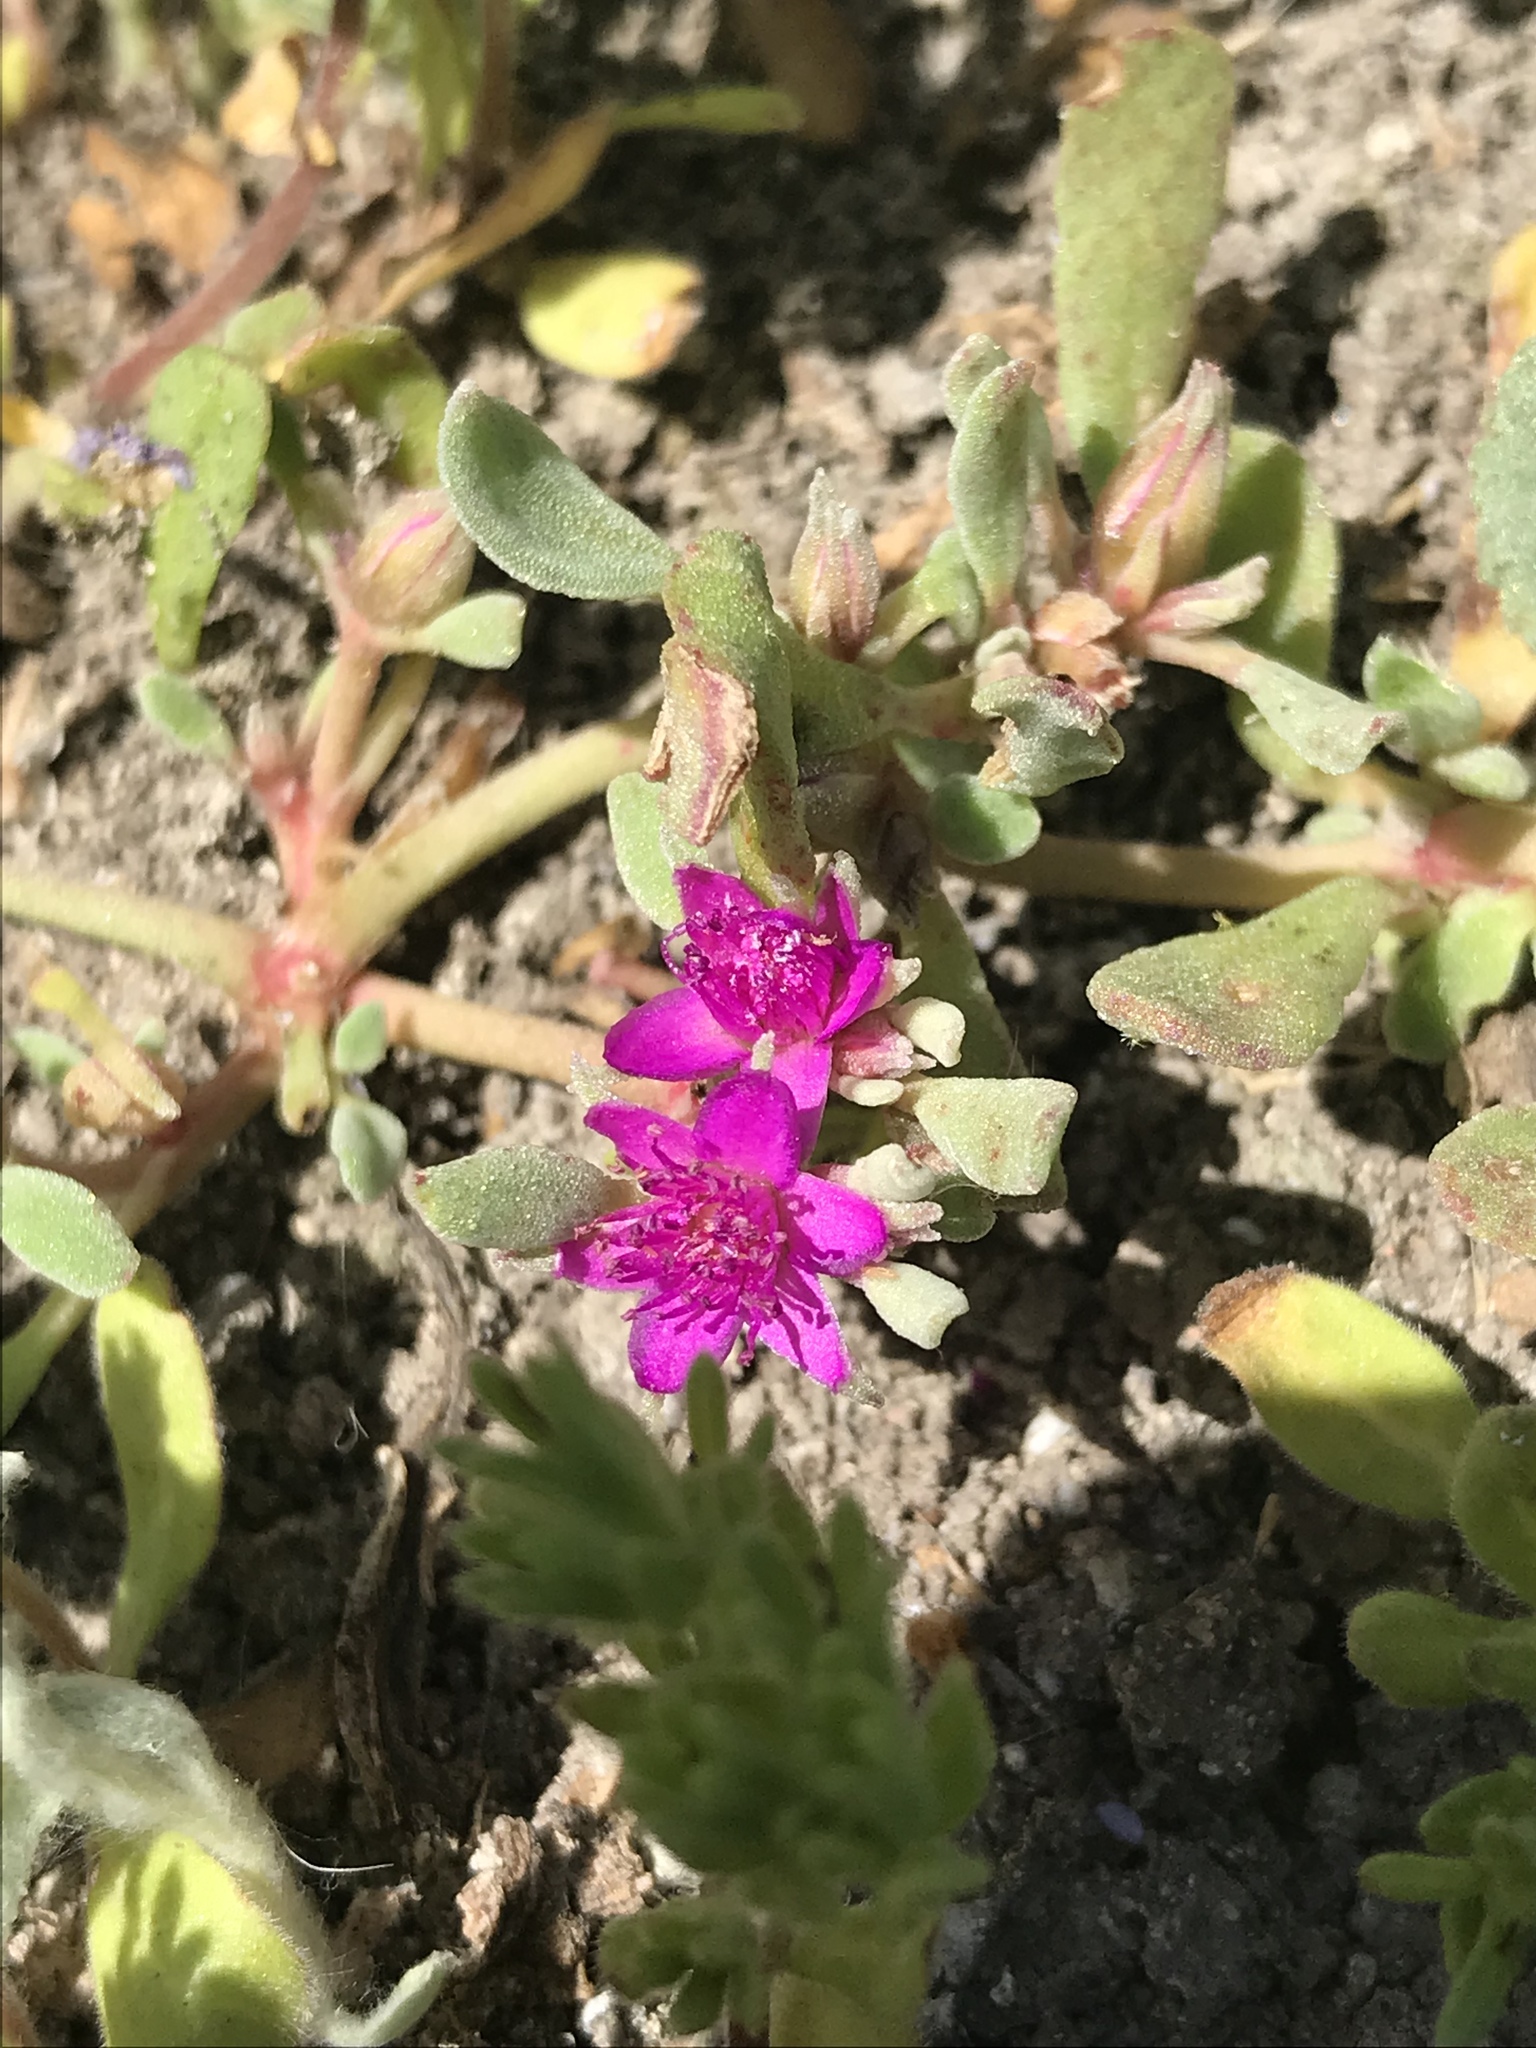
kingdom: Plantae
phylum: Tracheophyta
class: Magnoliopsida
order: Caryophyllales
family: Aizoaceae
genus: Sesuvium
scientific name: Sesuvium revolutifolium
